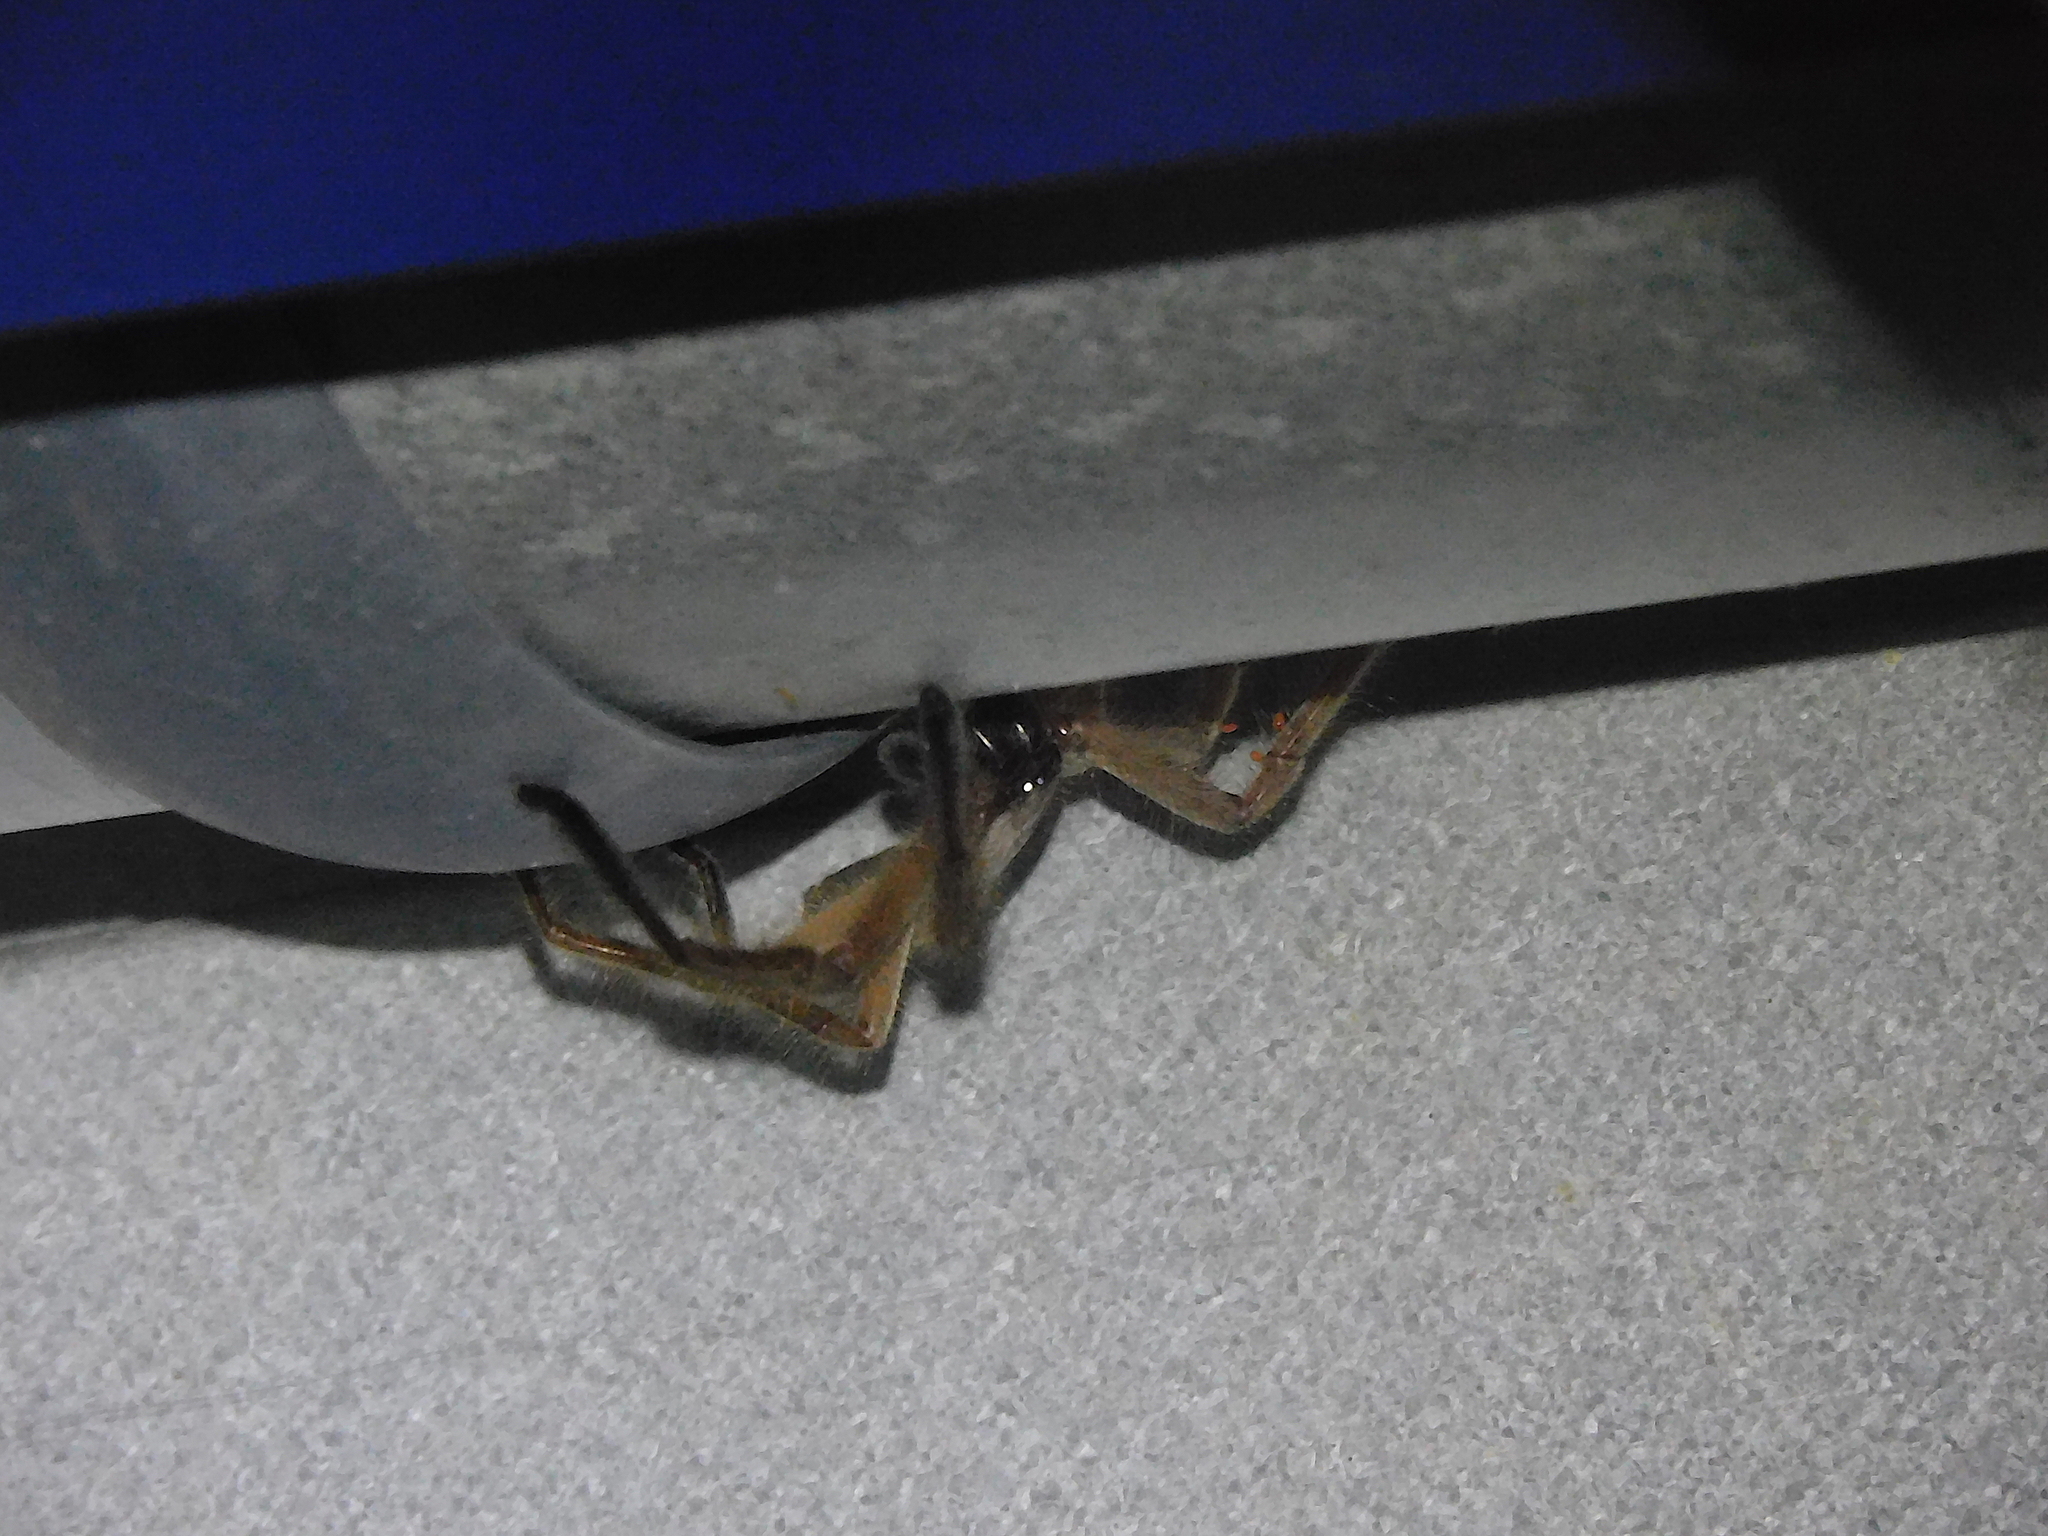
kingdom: Animalia
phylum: Arthropoda
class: Arachnida
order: Araneae
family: Sparassidae
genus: Delena
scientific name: Delena cancerides
